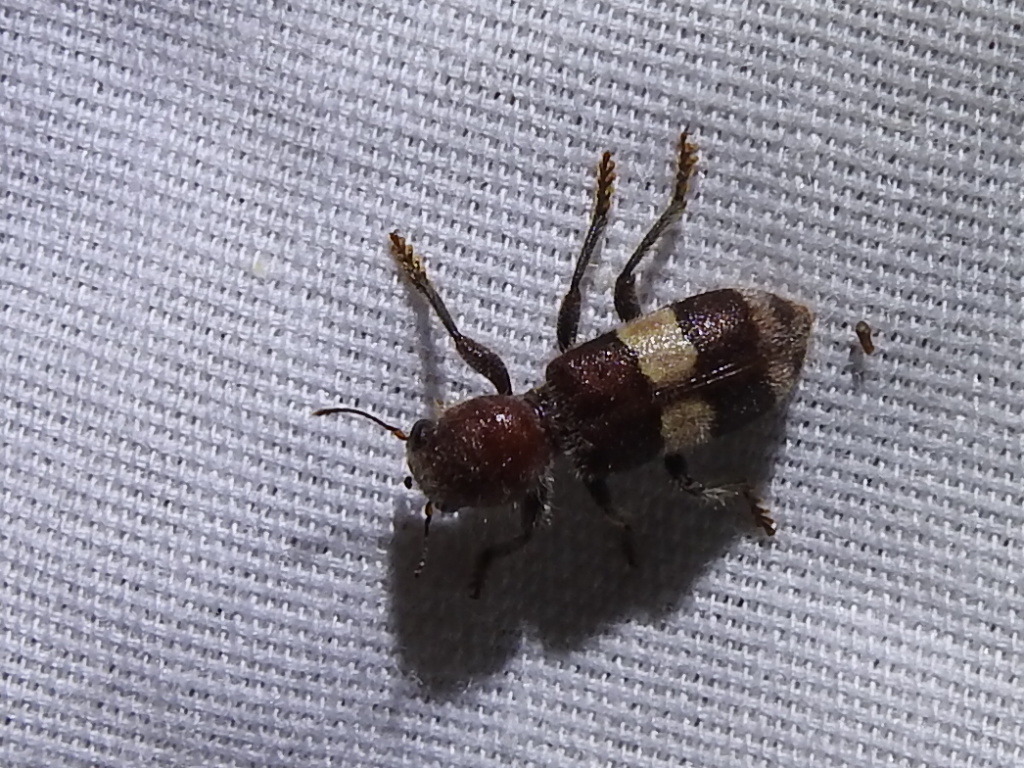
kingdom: Animalia
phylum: Arthropoda
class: Insecta
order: Coleoptera
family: Cleridae
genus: Enoclerus
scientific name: Enoclerus quadrisignatus
